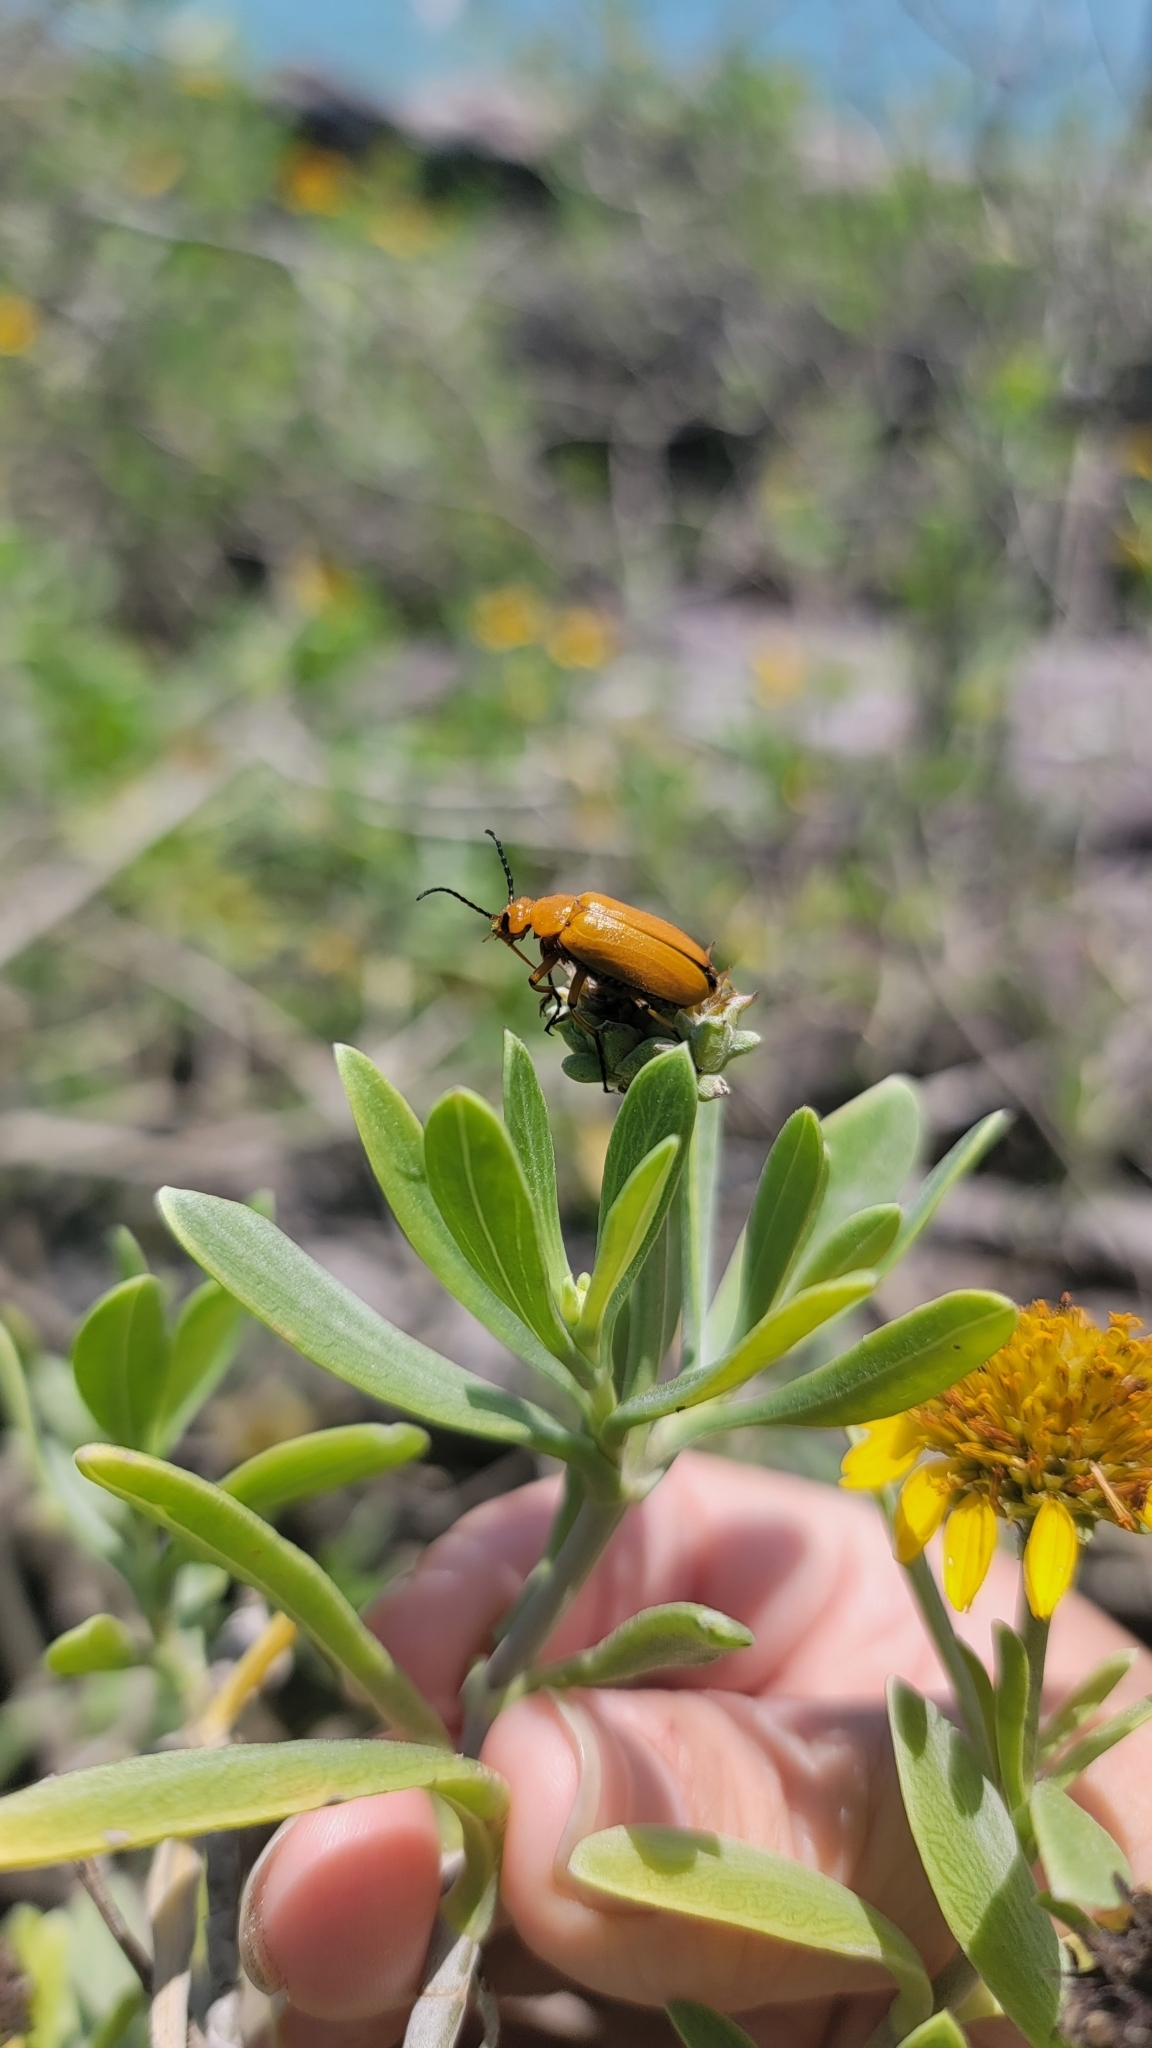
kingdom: Animalia
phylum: Arthropoda
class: Insecta
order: Coleoptera
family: Meloidae
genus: Nemognatha
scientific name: Nemognatha punctulata
